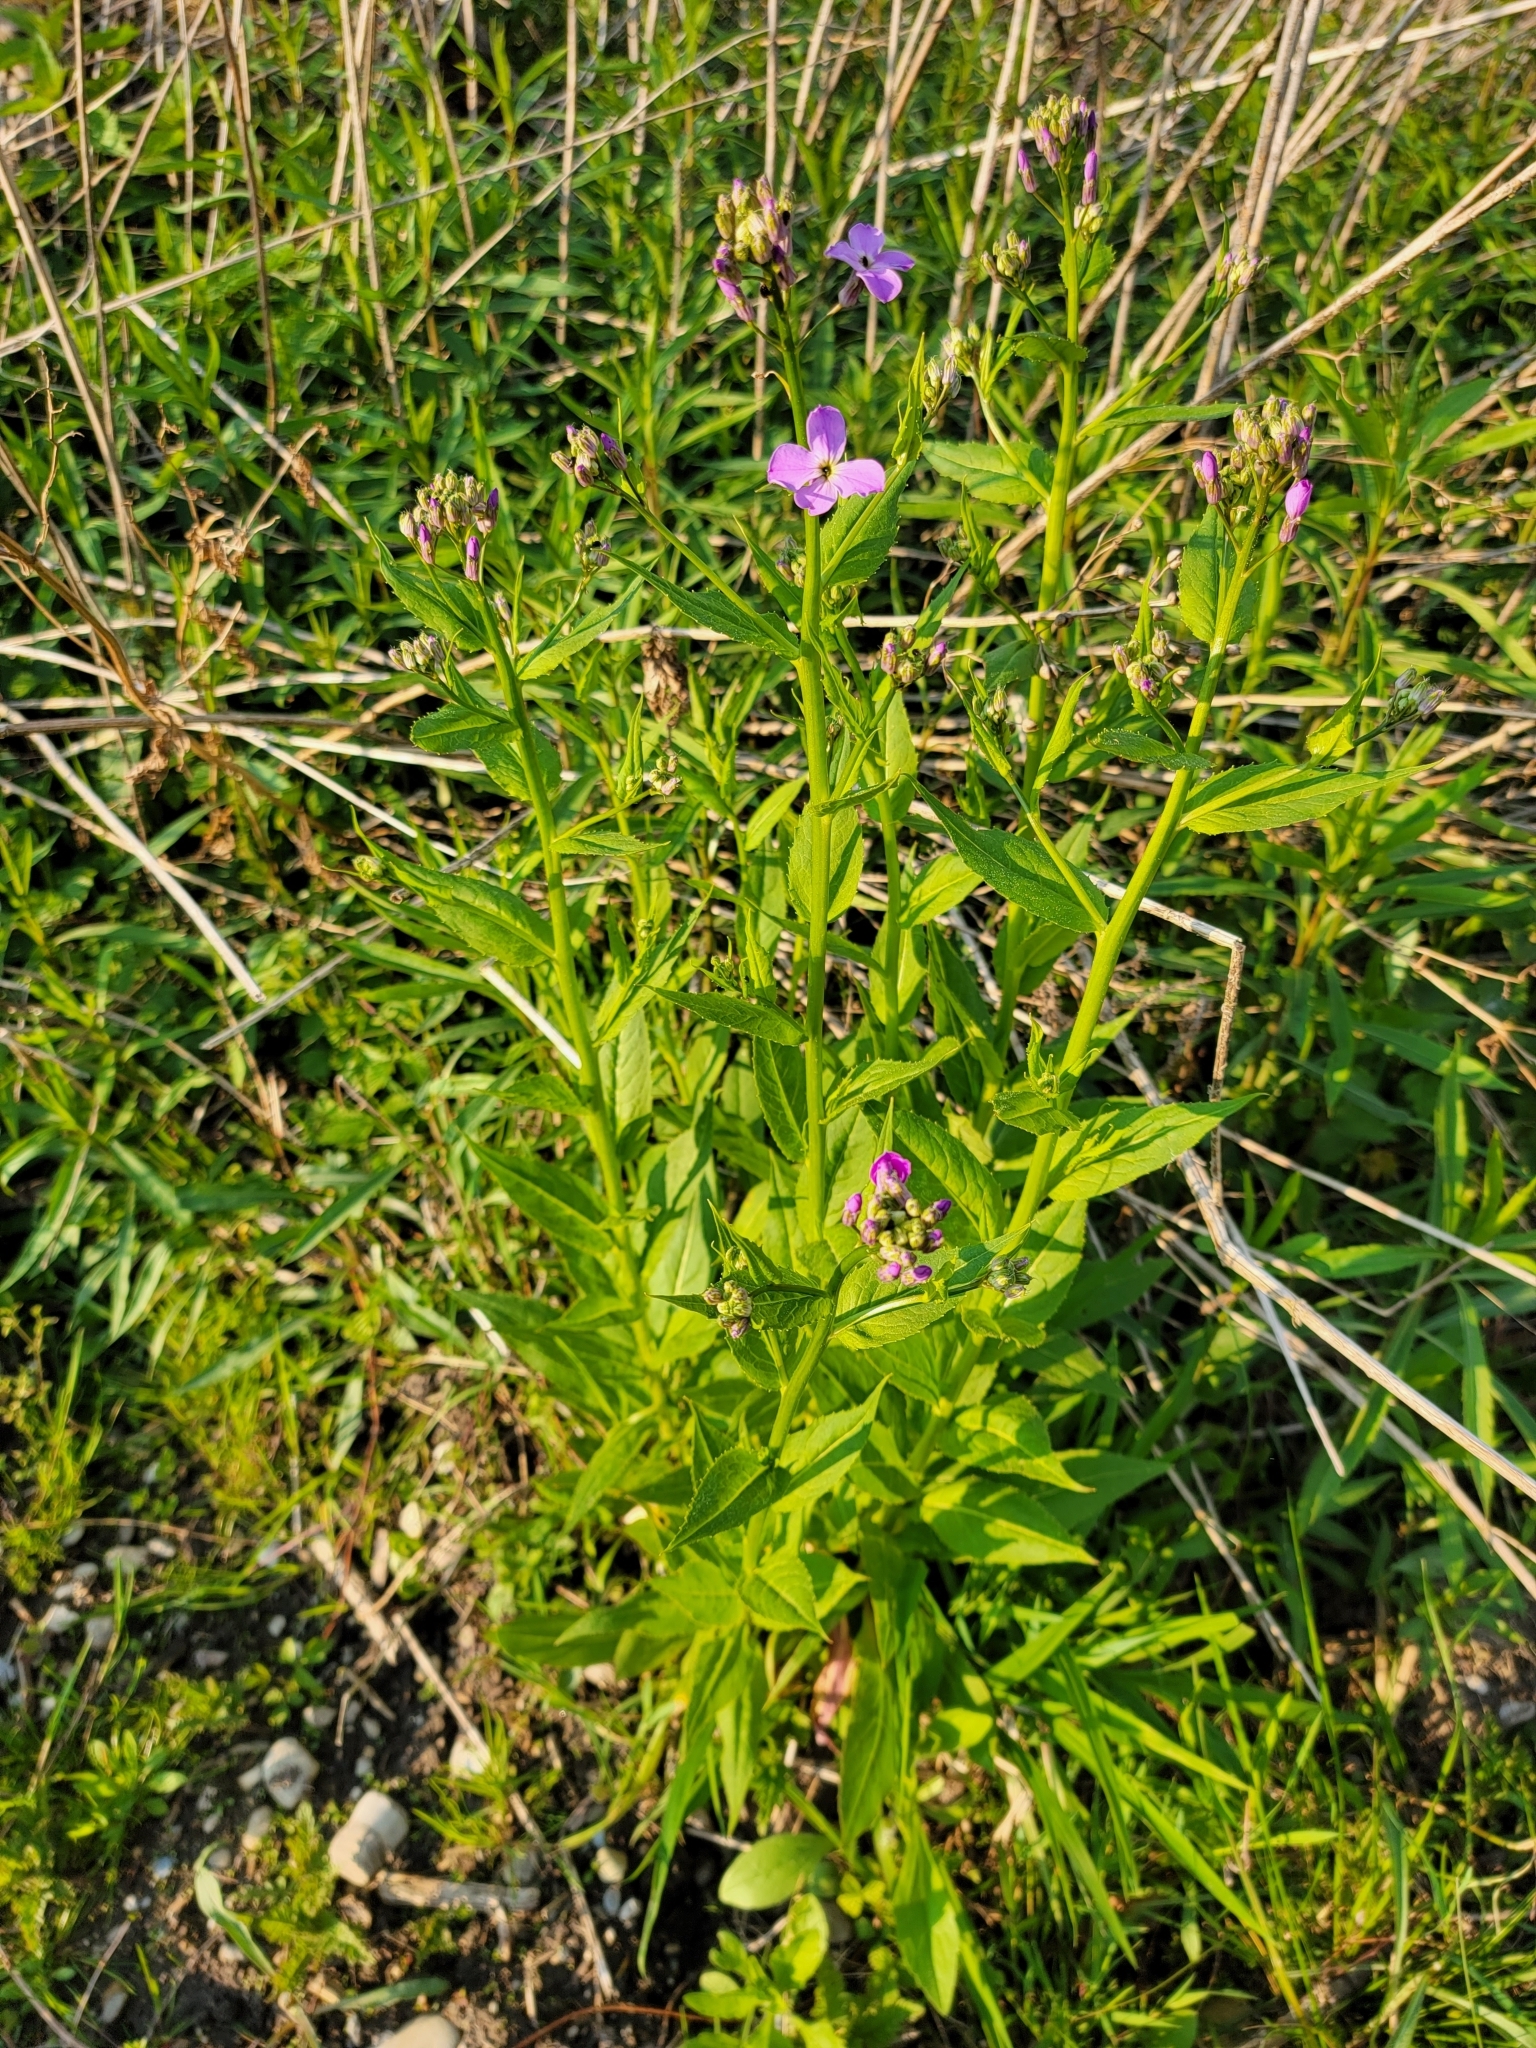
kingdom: Plantae
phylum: Tracheophyta
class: Magnoliopsida
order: Brassicales
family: Brassicaceae
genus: Hesperis
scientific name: Hesperis matronalis
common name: Dame's-violet
